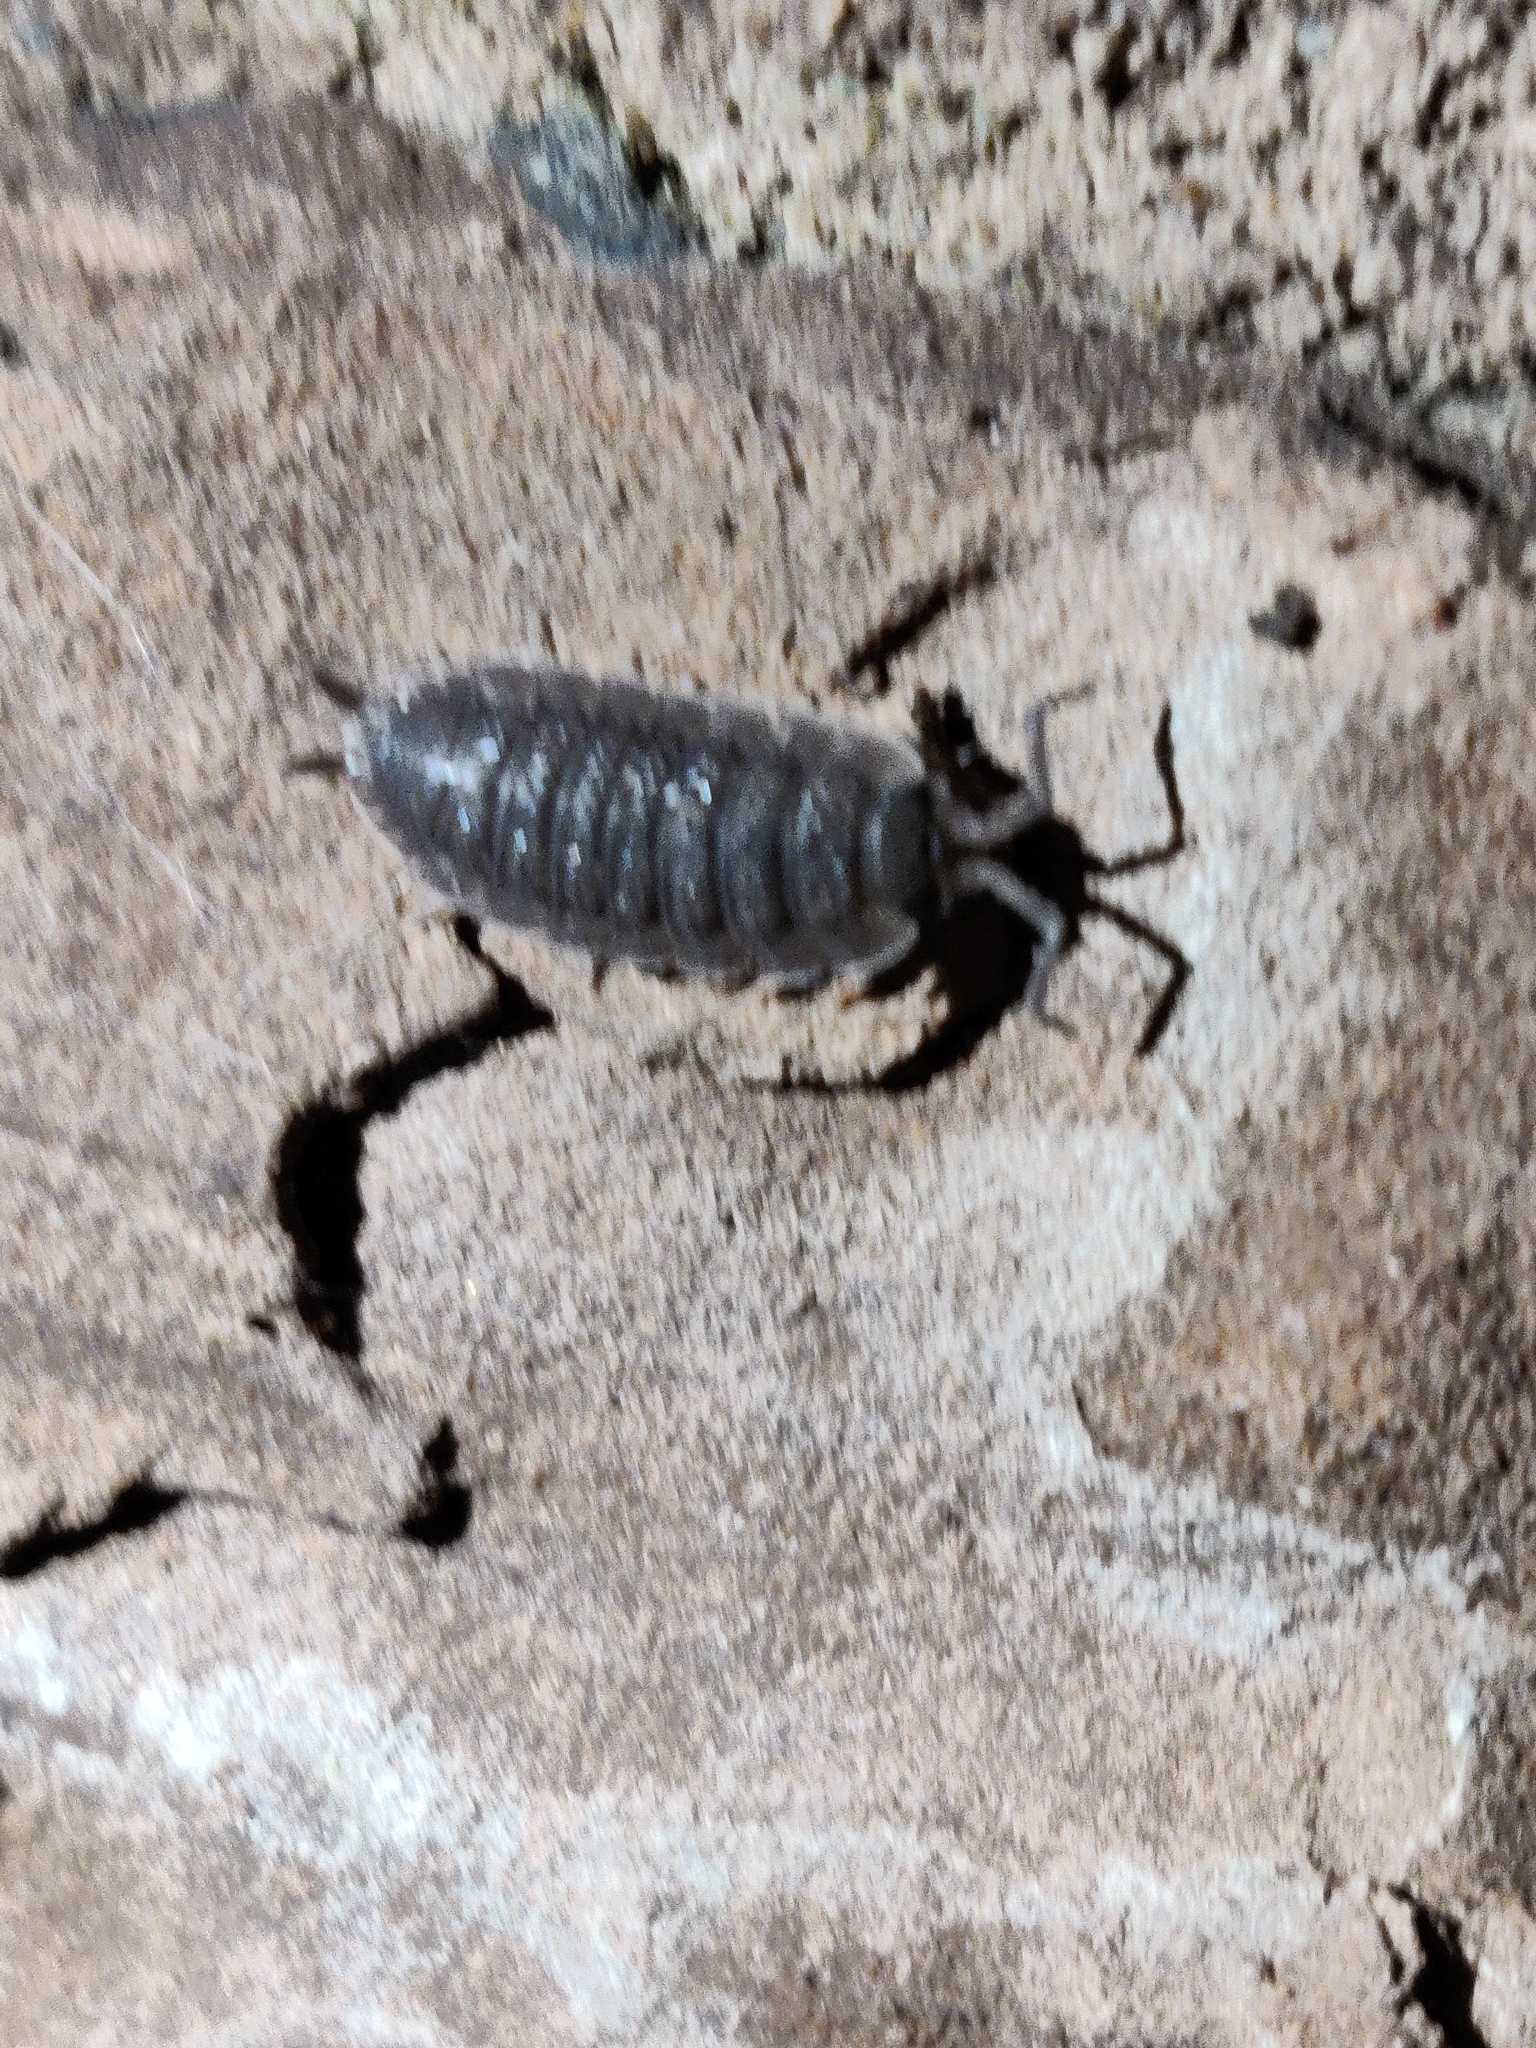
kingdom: Animalia
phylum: Arthropoda
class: Malacostraca
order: Isopoda
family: Porcellionidae
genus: Porcellio
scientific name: Porcellio scaber
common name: Common rough woodlouse
